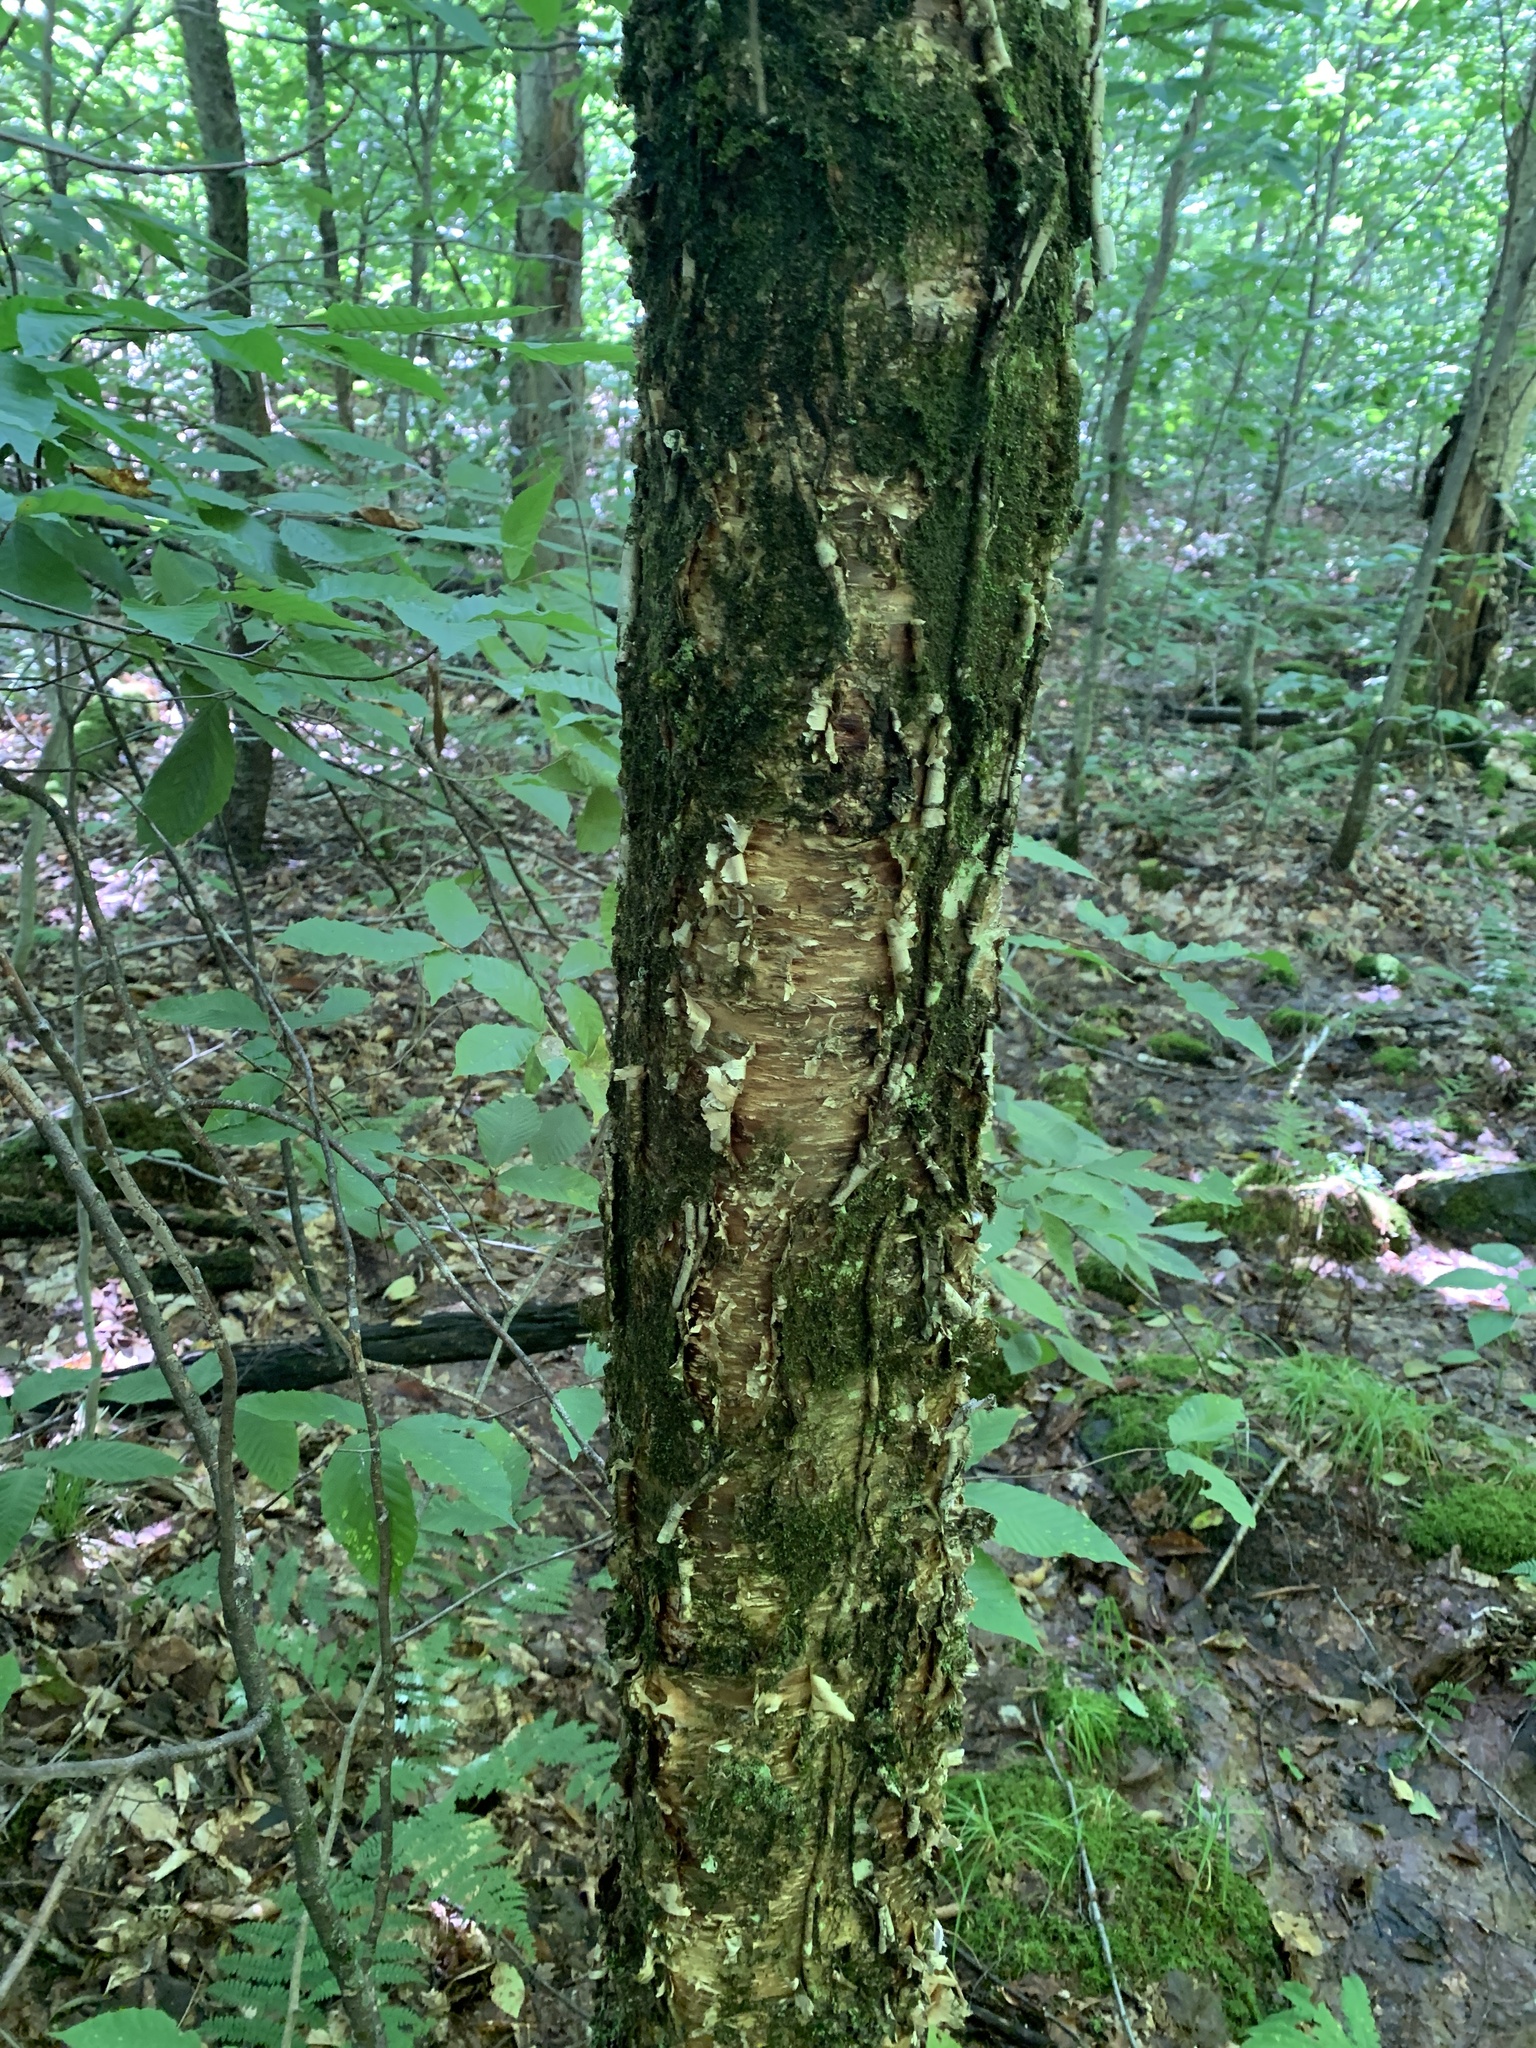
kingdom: Plantae
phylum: Tracheophyta
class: Magnoliopsida
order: Fagales
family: Betulaceae
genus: Betula
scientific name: Betula alleghaniensis
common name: Yellow birch
